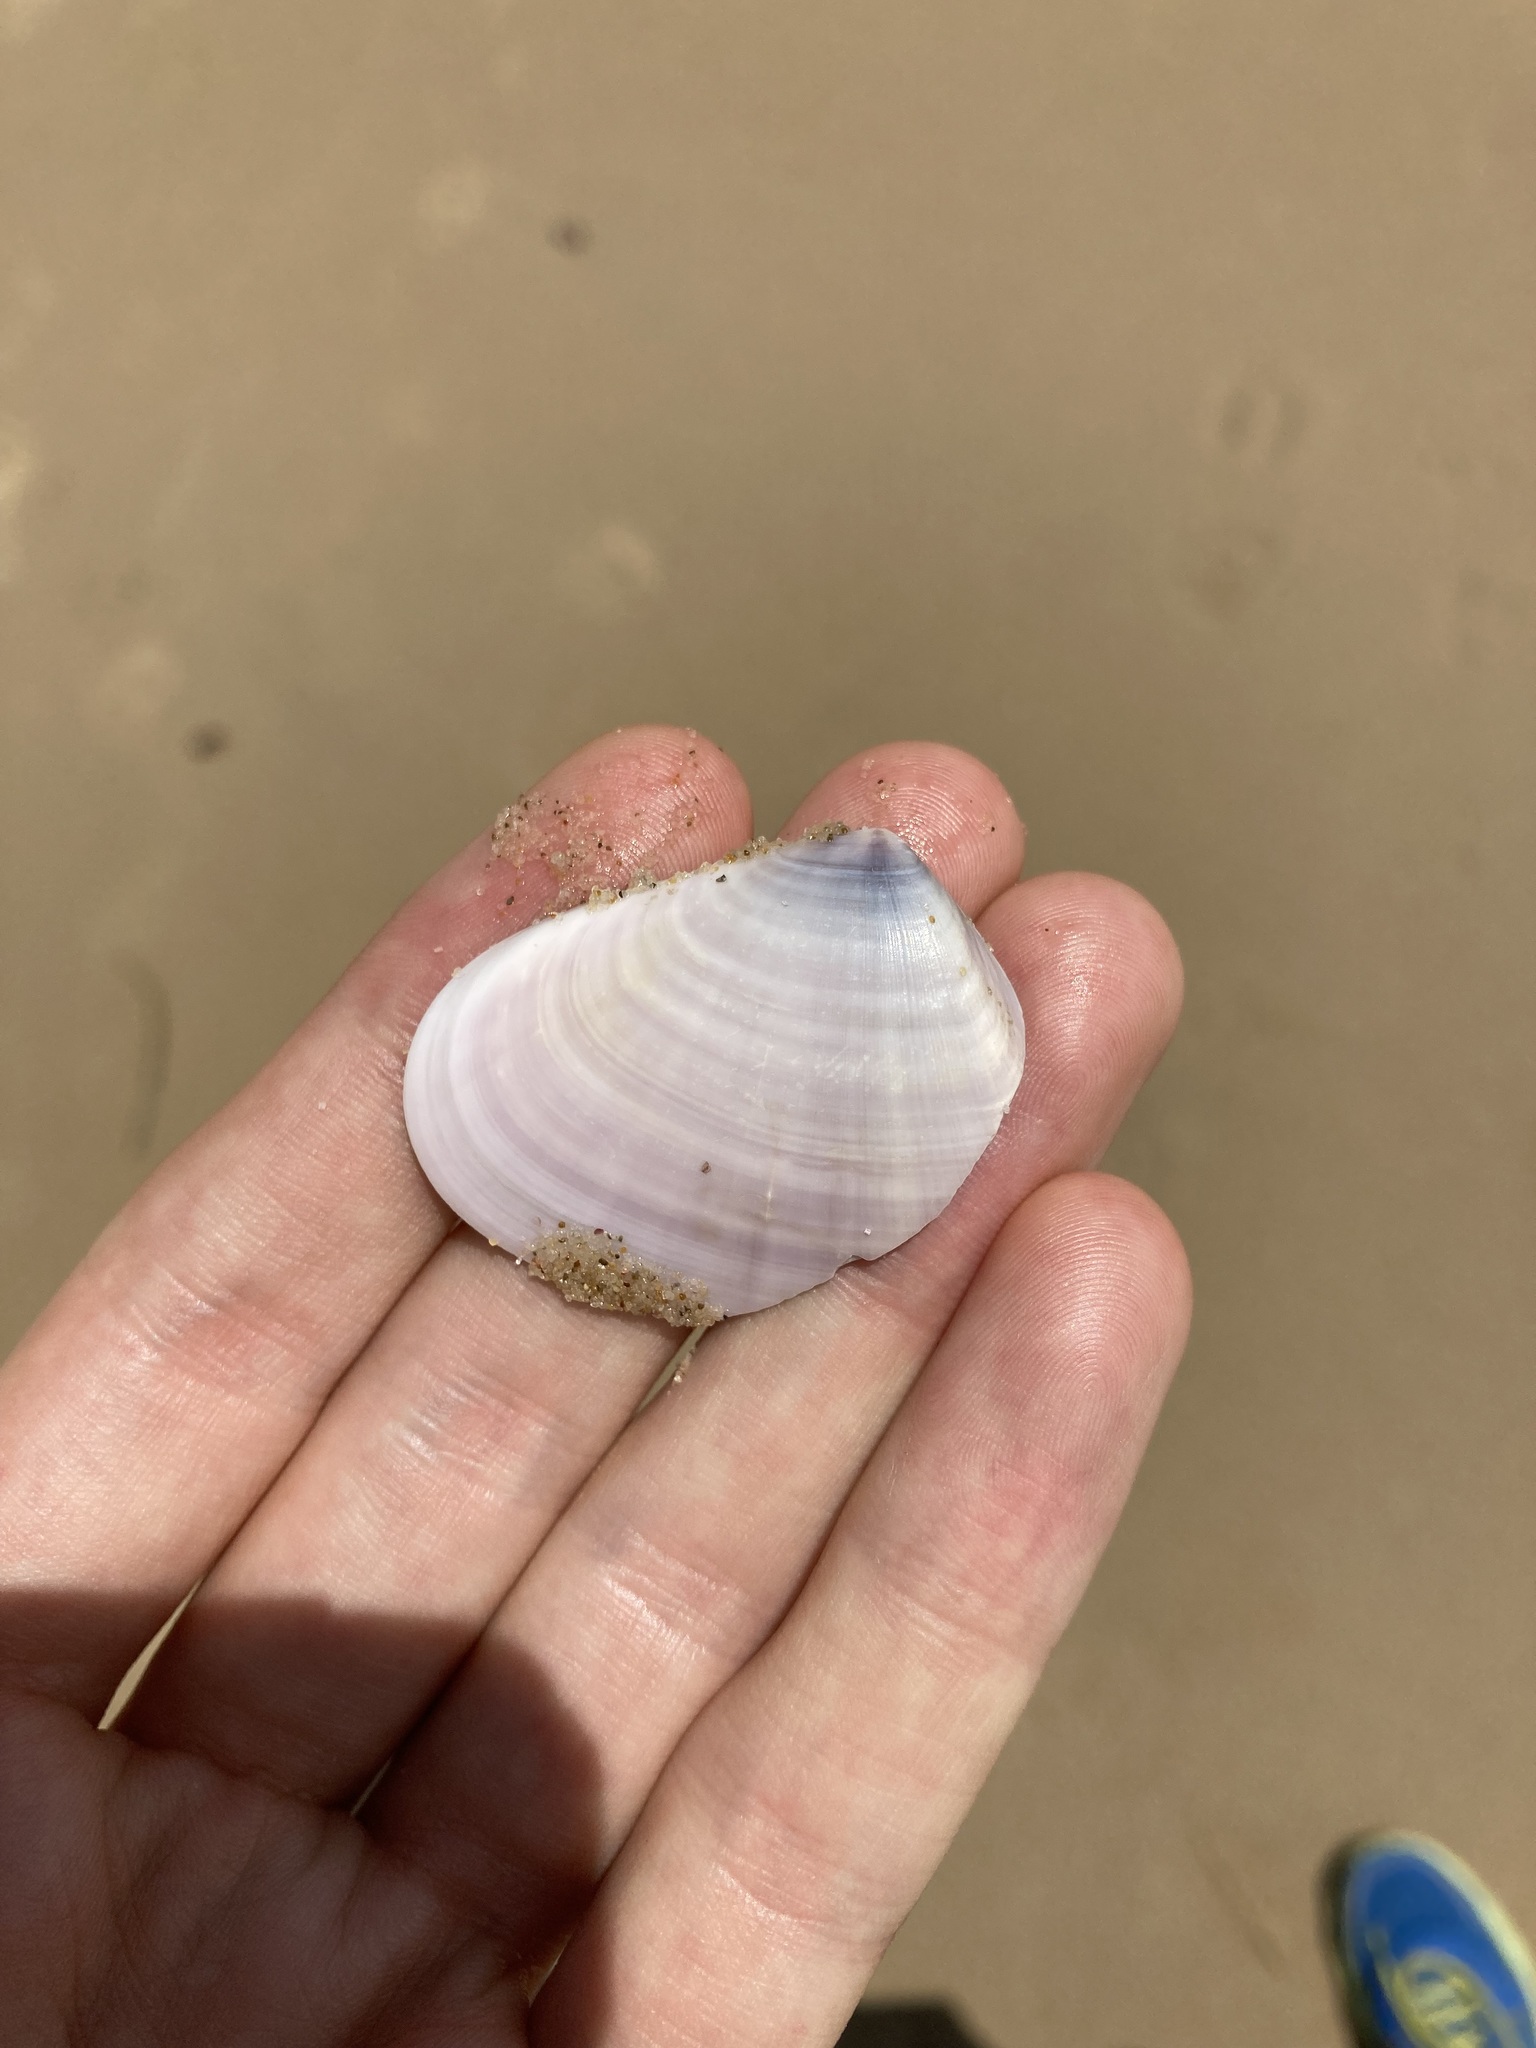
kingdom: Animalia
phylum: Mollusca
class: Bivalvia
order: Cardiida
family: Donacidae
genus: Latona
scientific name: Latona deltoides
